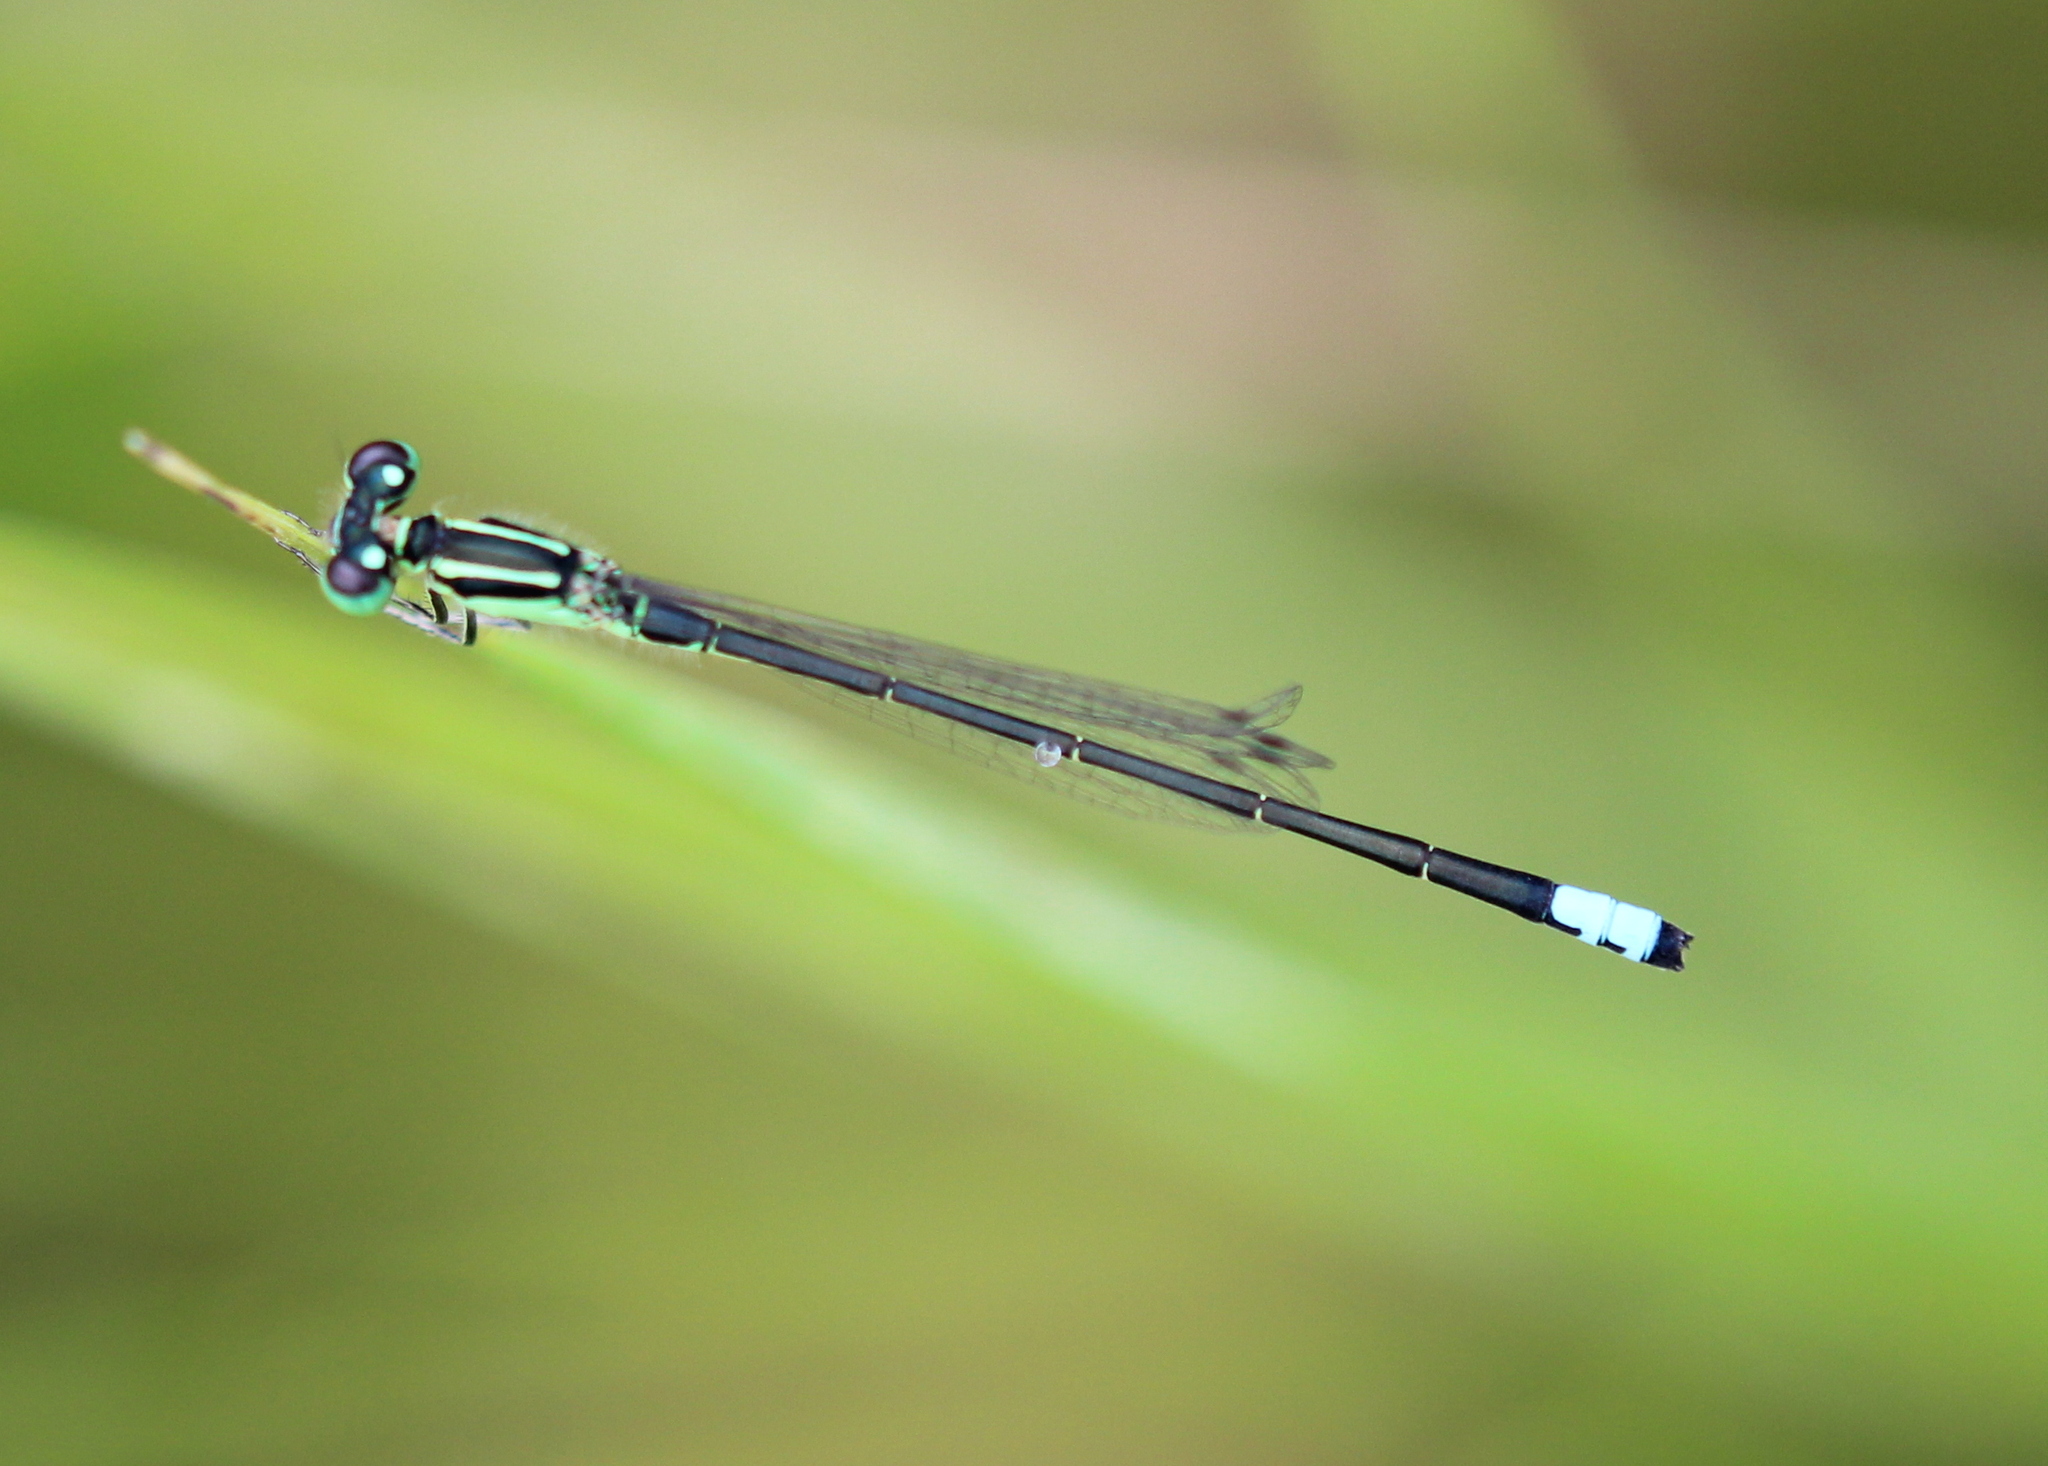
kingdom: Animalia
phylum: Arthropoda
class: Insecta
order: Odonata
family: Coenagrionidae
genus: Ischnura
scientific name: Ischnura verticalis
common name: Eastern forktail
